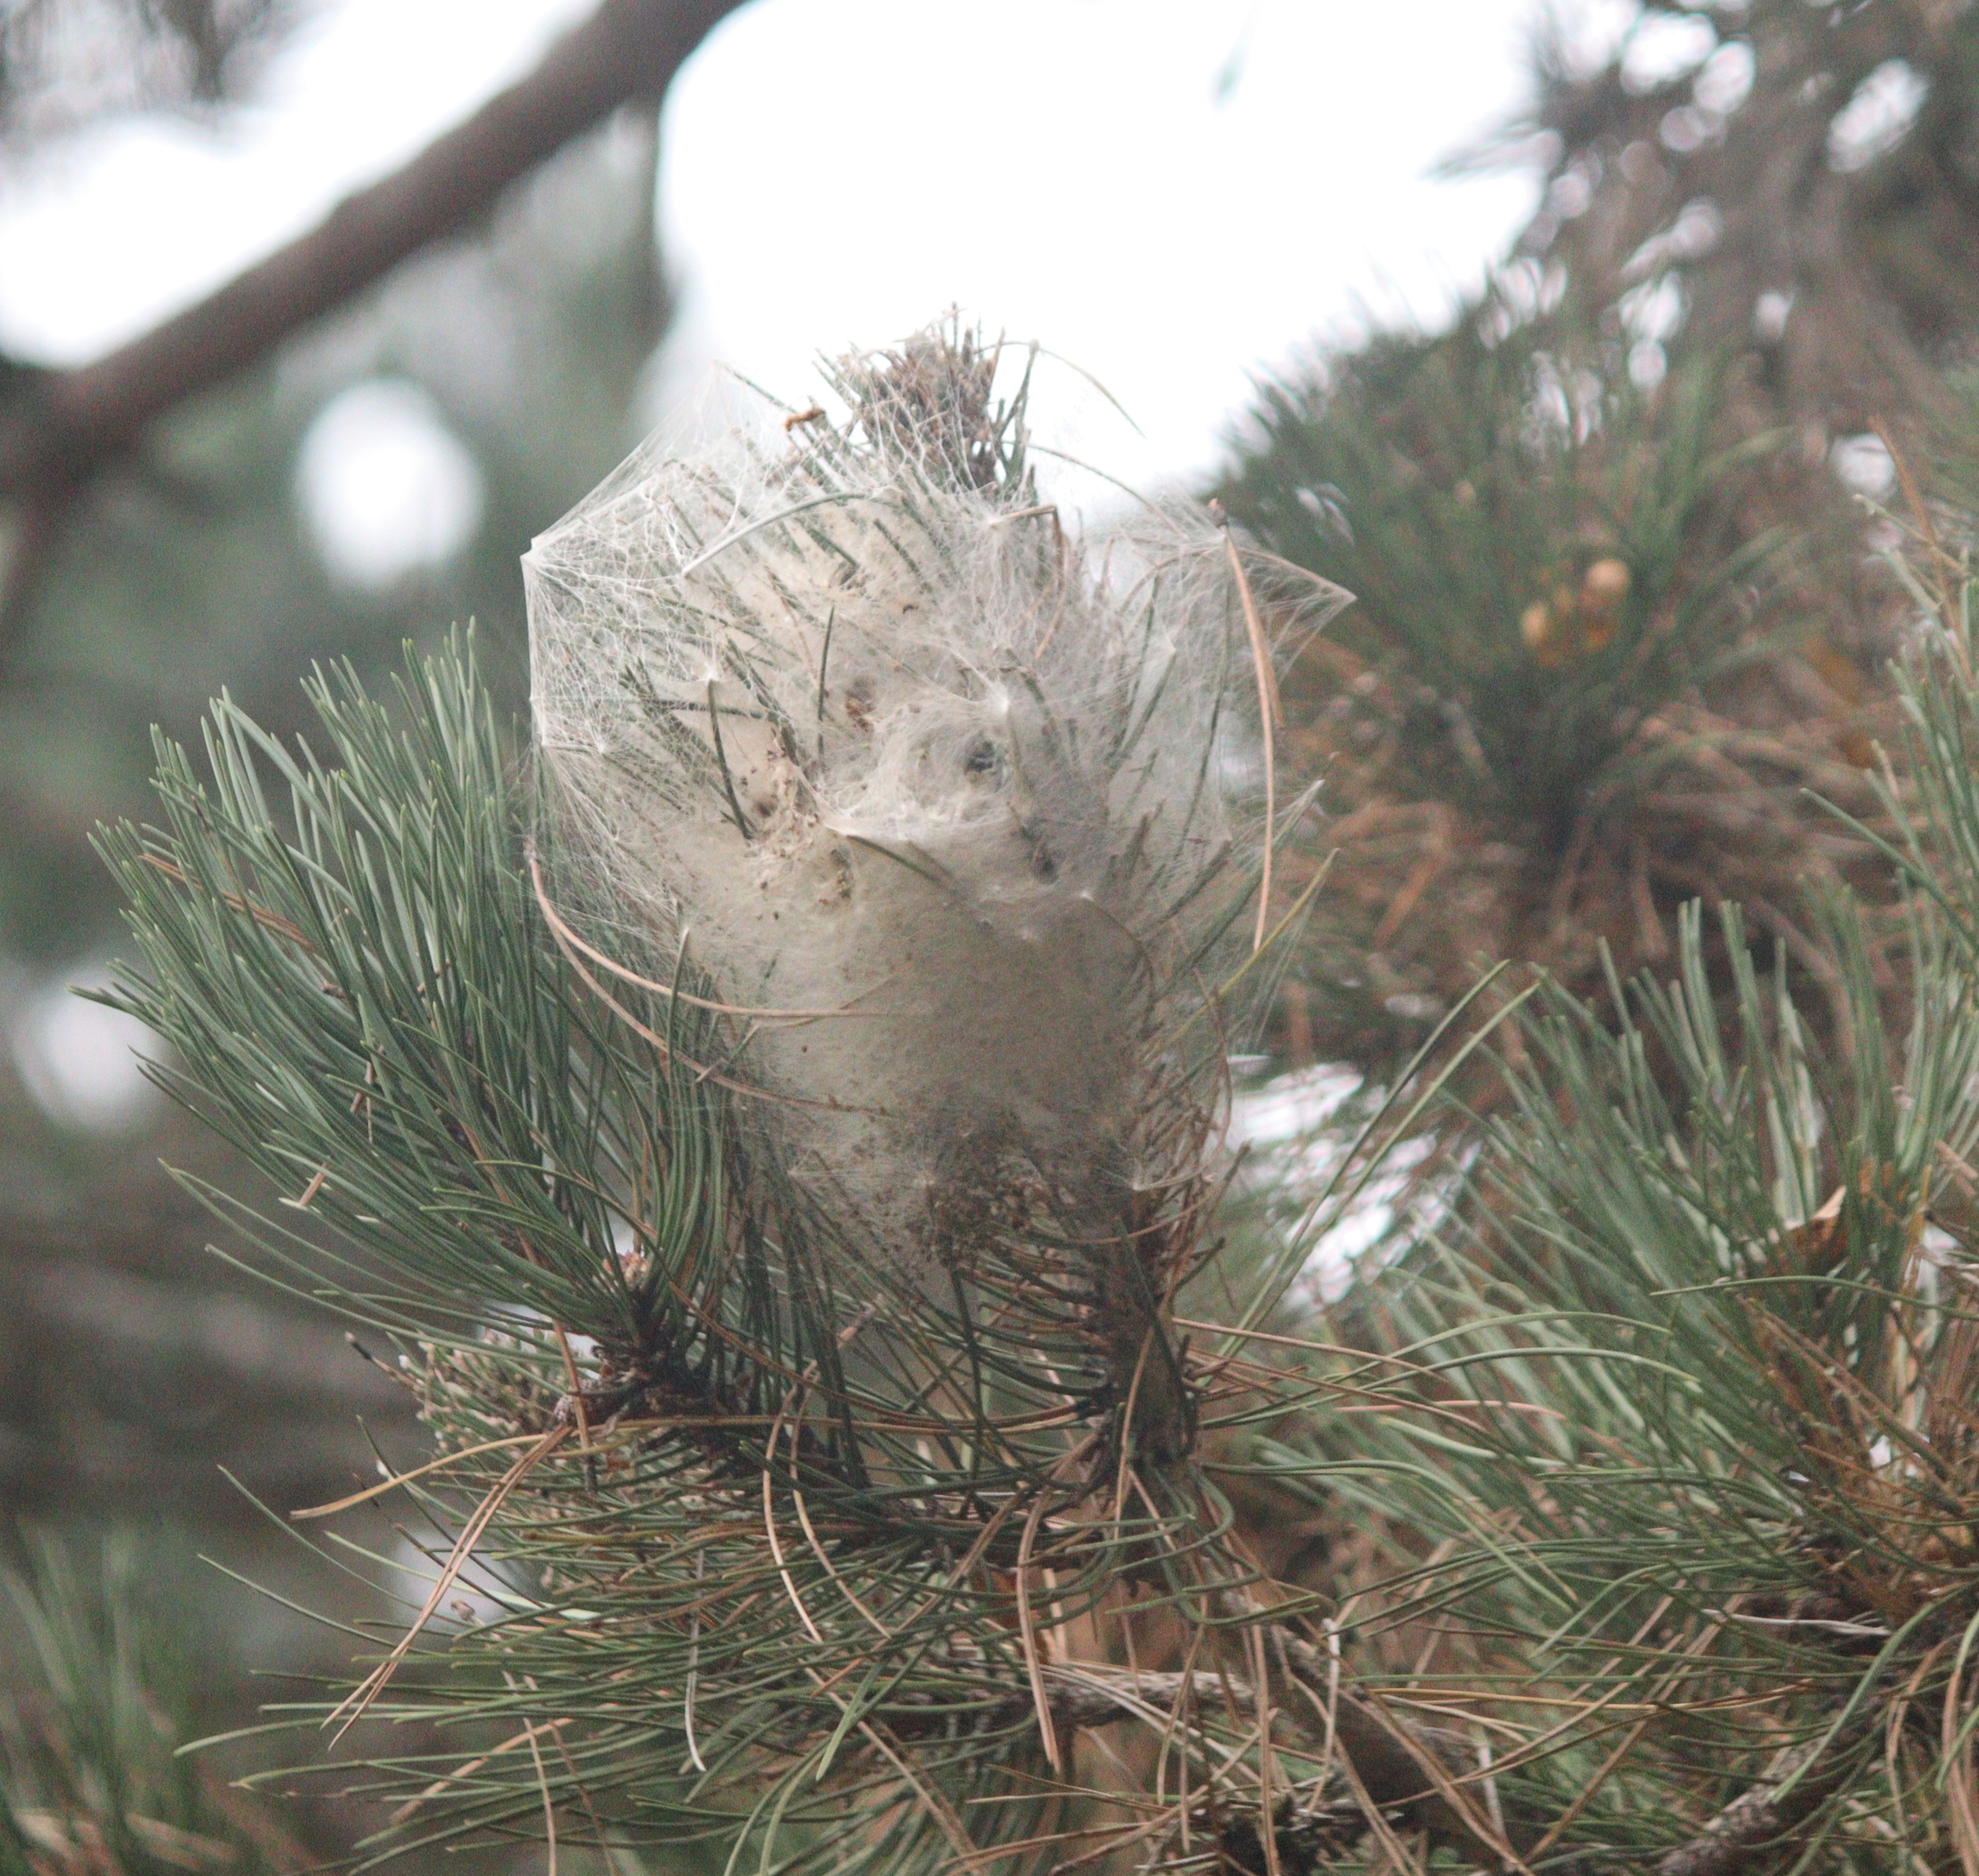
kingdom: Animalia
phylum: Arthropoda
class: Insecta
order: Lepidoptera
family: Notodontidae
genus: Thaumetopoea
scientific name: Thaumetopoea pityocampa
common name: Pine processionary
